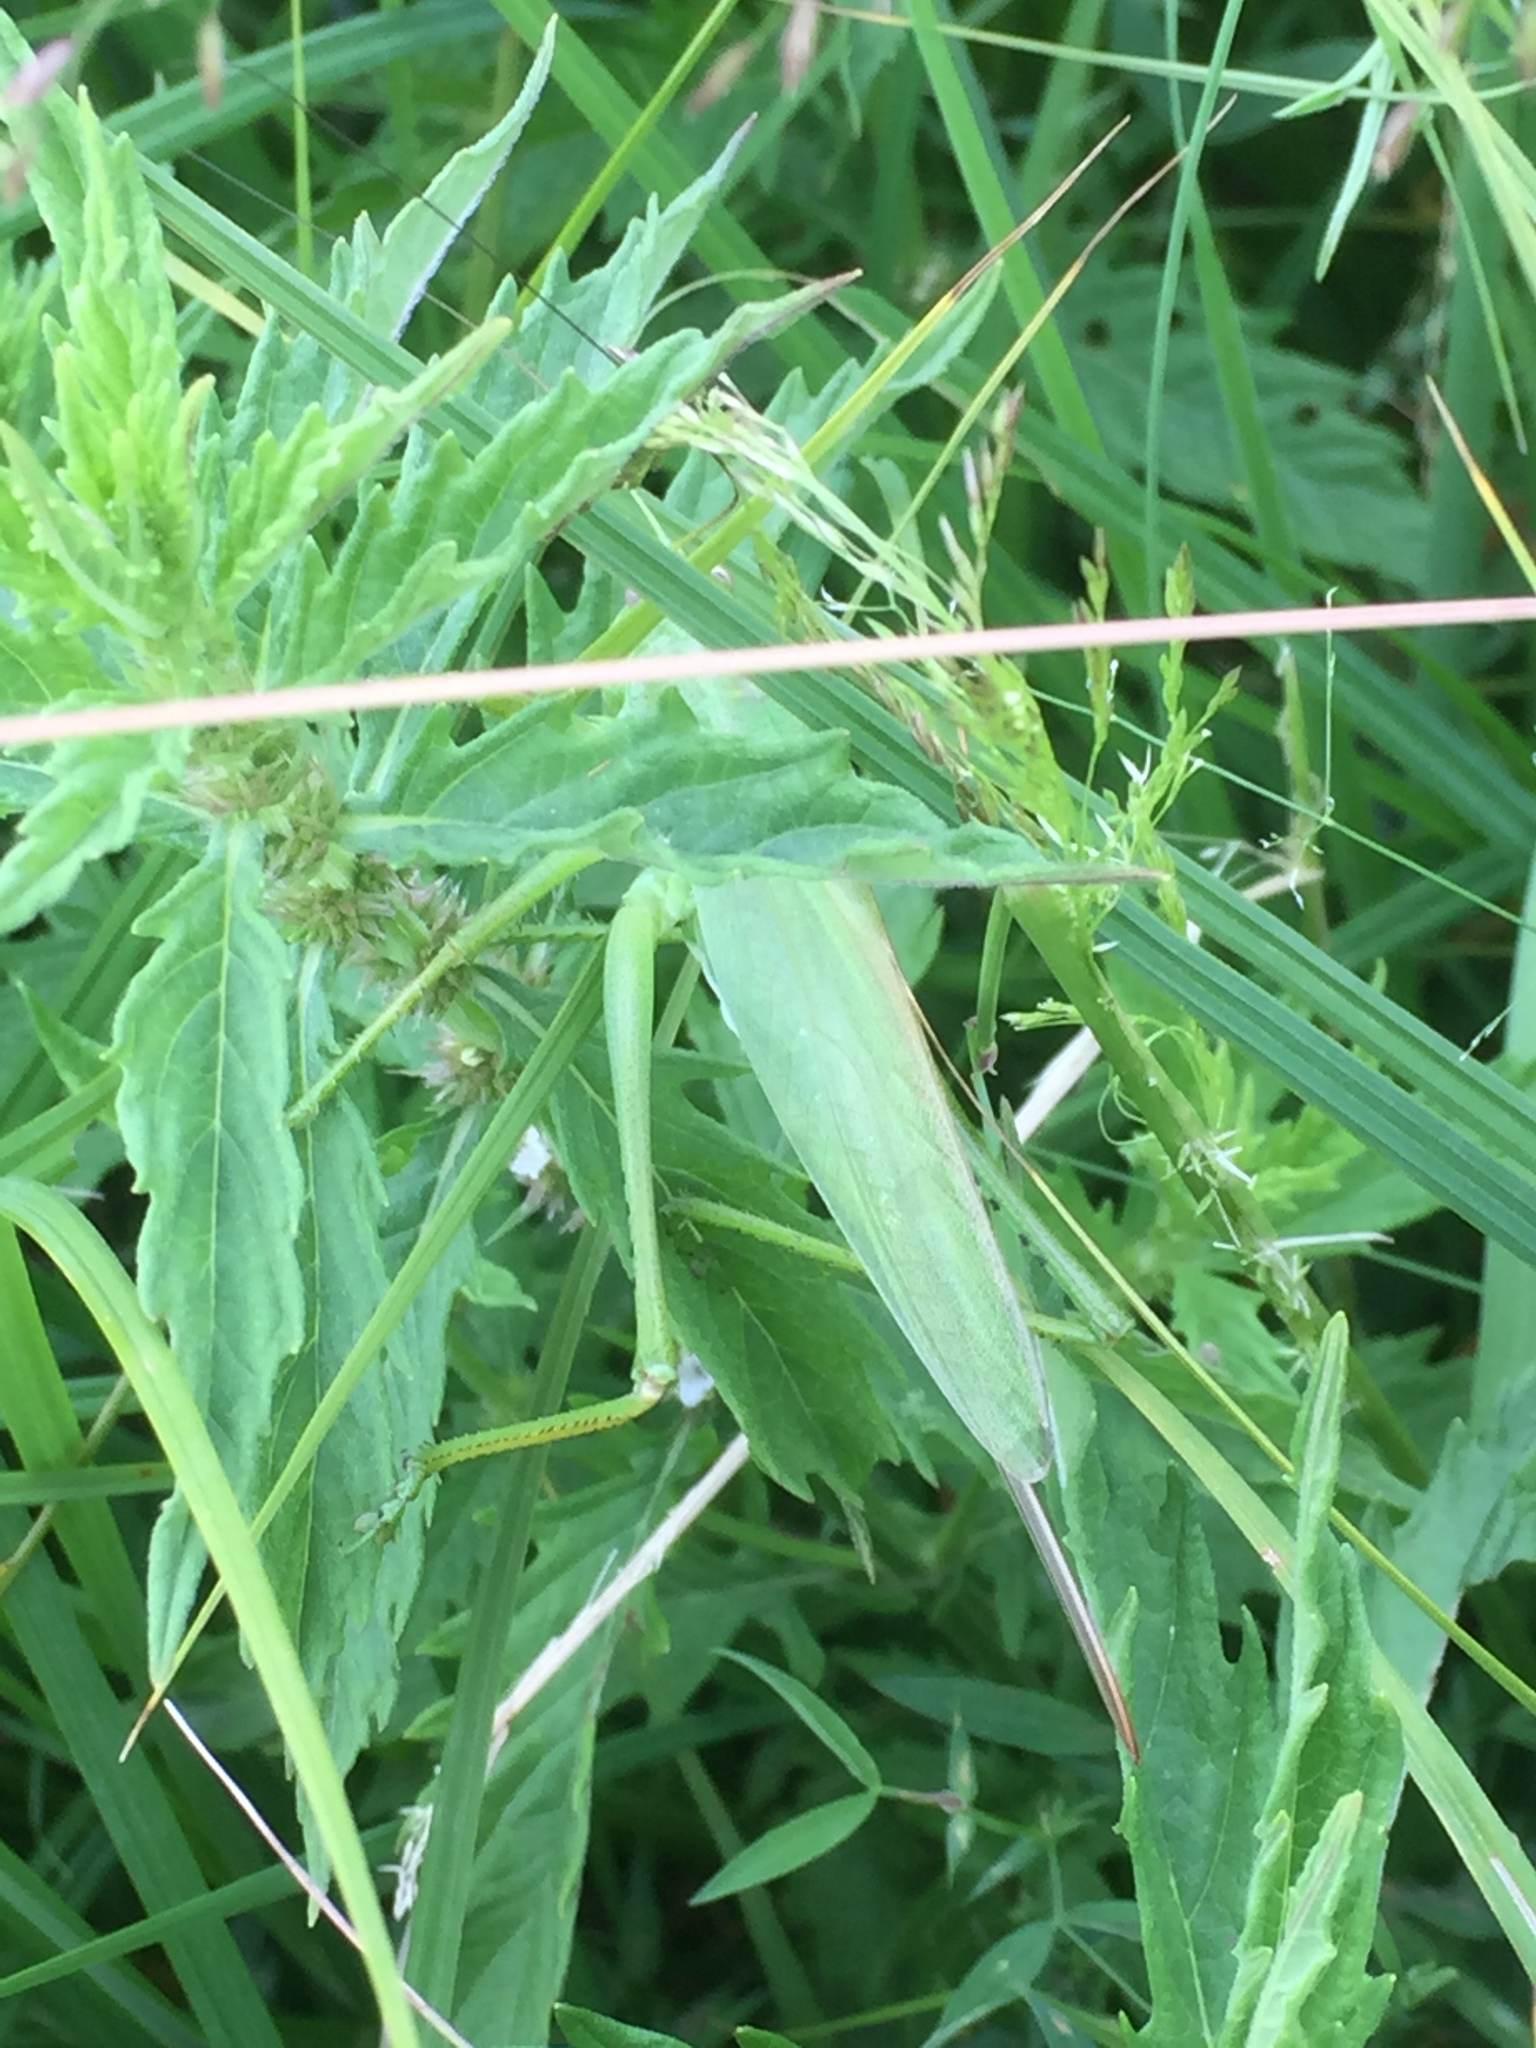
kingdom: Animalia
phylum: Arthropoda
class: Insecta
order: Orthoptera
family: Tettigoniidae
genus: Tettigonia
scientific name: Tettigonia caudata
